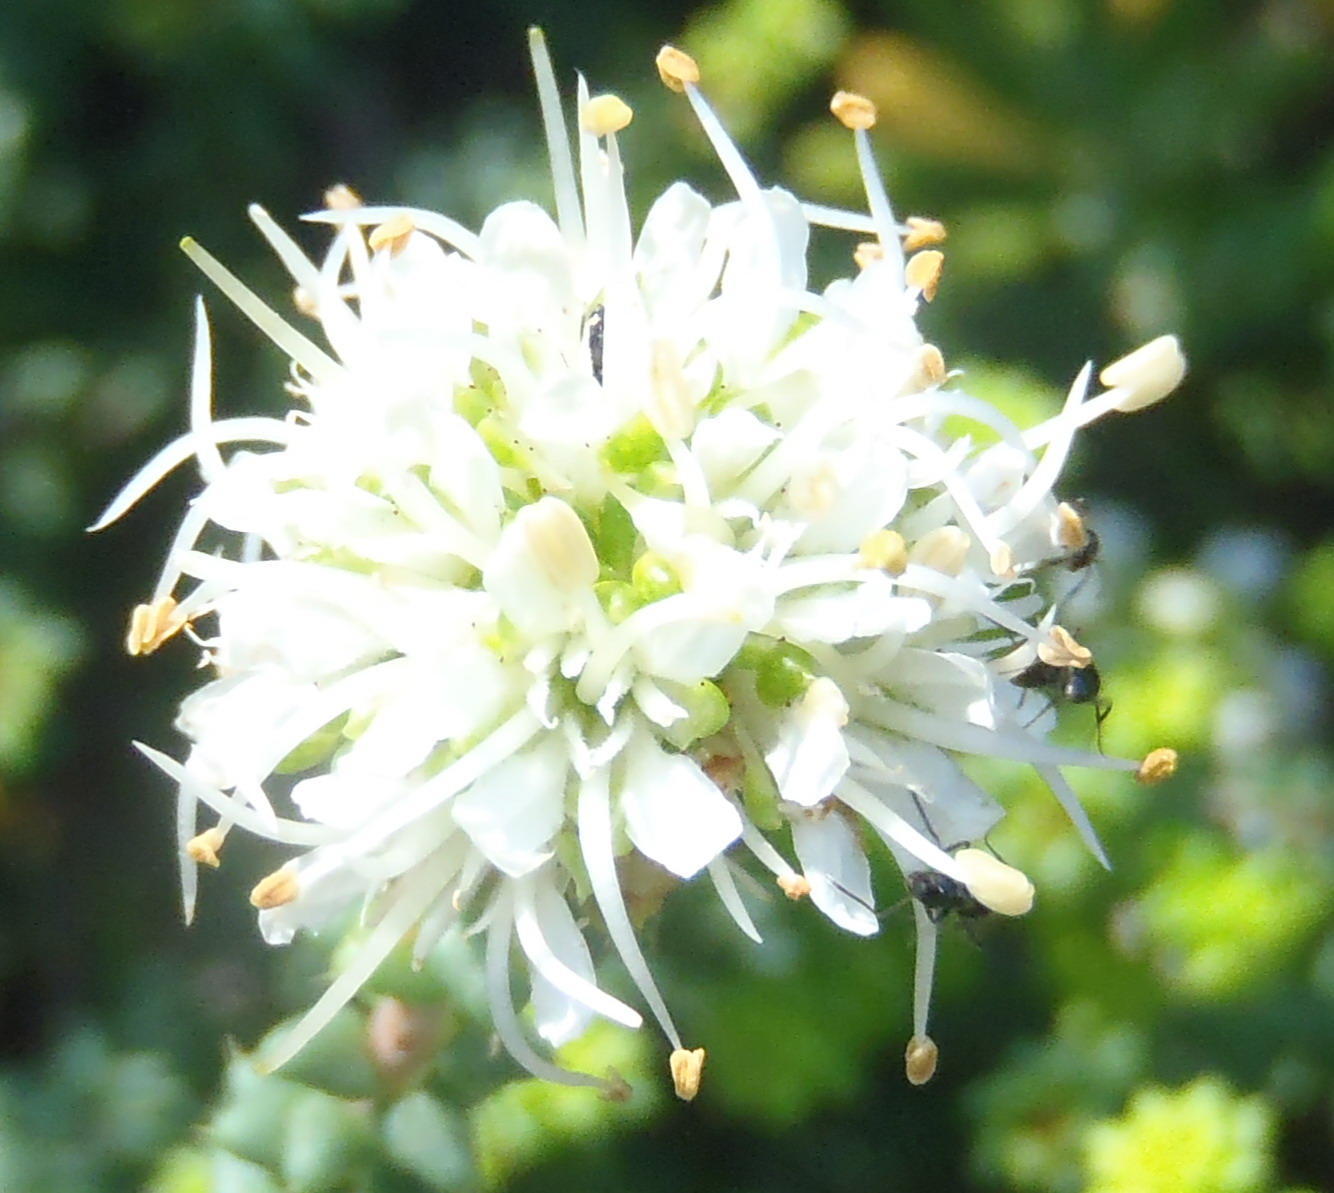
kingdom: Plantae
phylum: Tracheophyta
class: Magnoliopsida
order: Sapindales
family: Rutaceae
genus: Agathosma
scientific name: Agathosma apiculata
